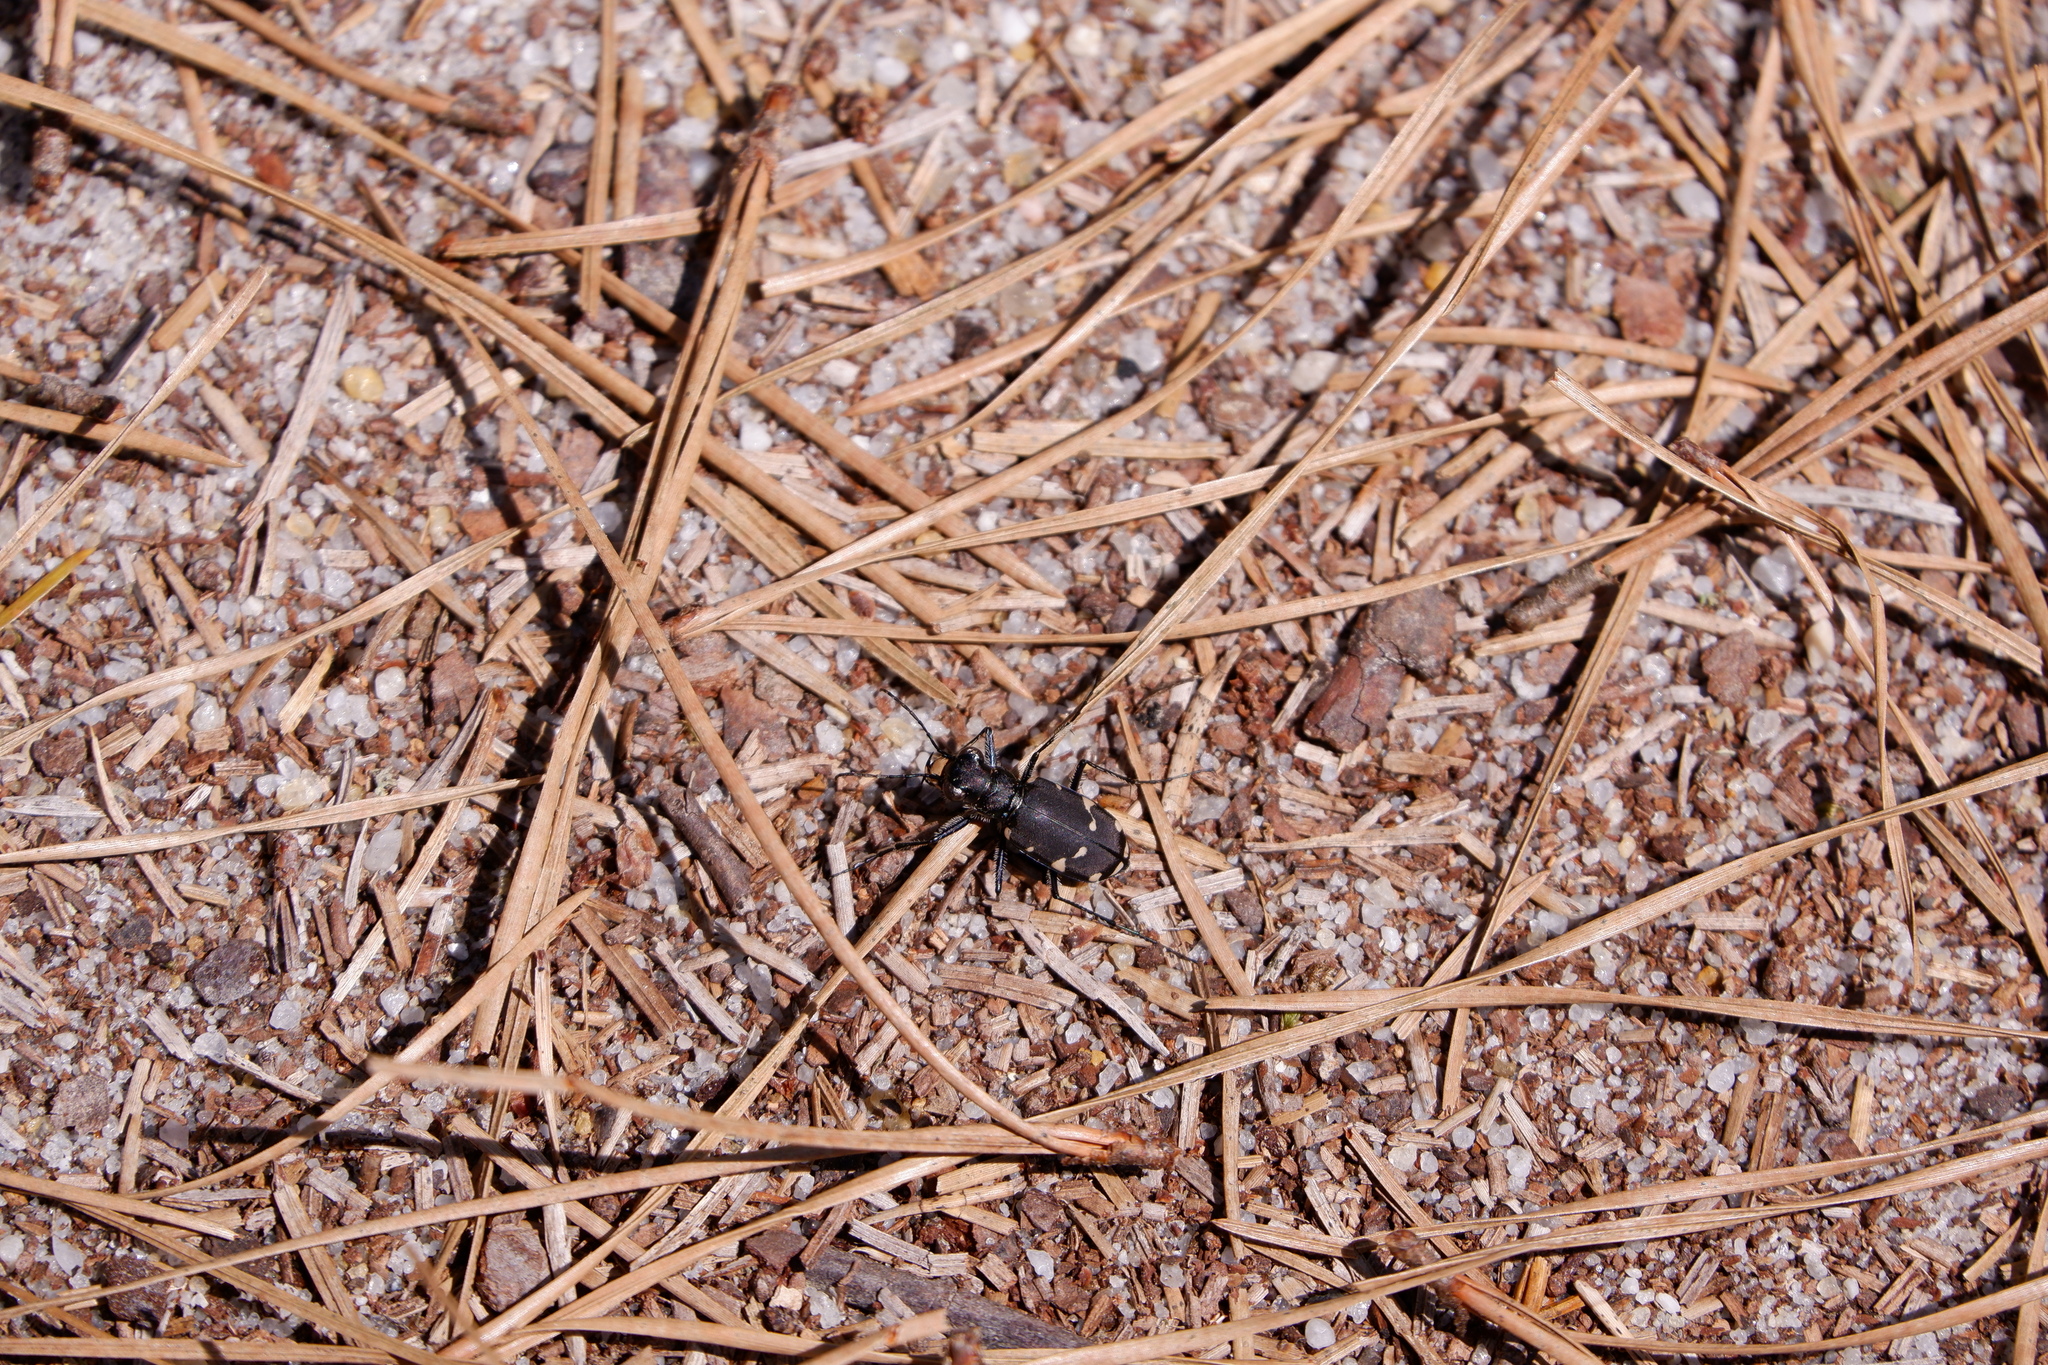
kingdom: Animalia
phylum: Arthropoda
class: Insecta
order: Coleoptera
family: Carabidae
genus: Cicindela
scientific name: Cicindela patruela
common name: Northern barrens tiger beetle
